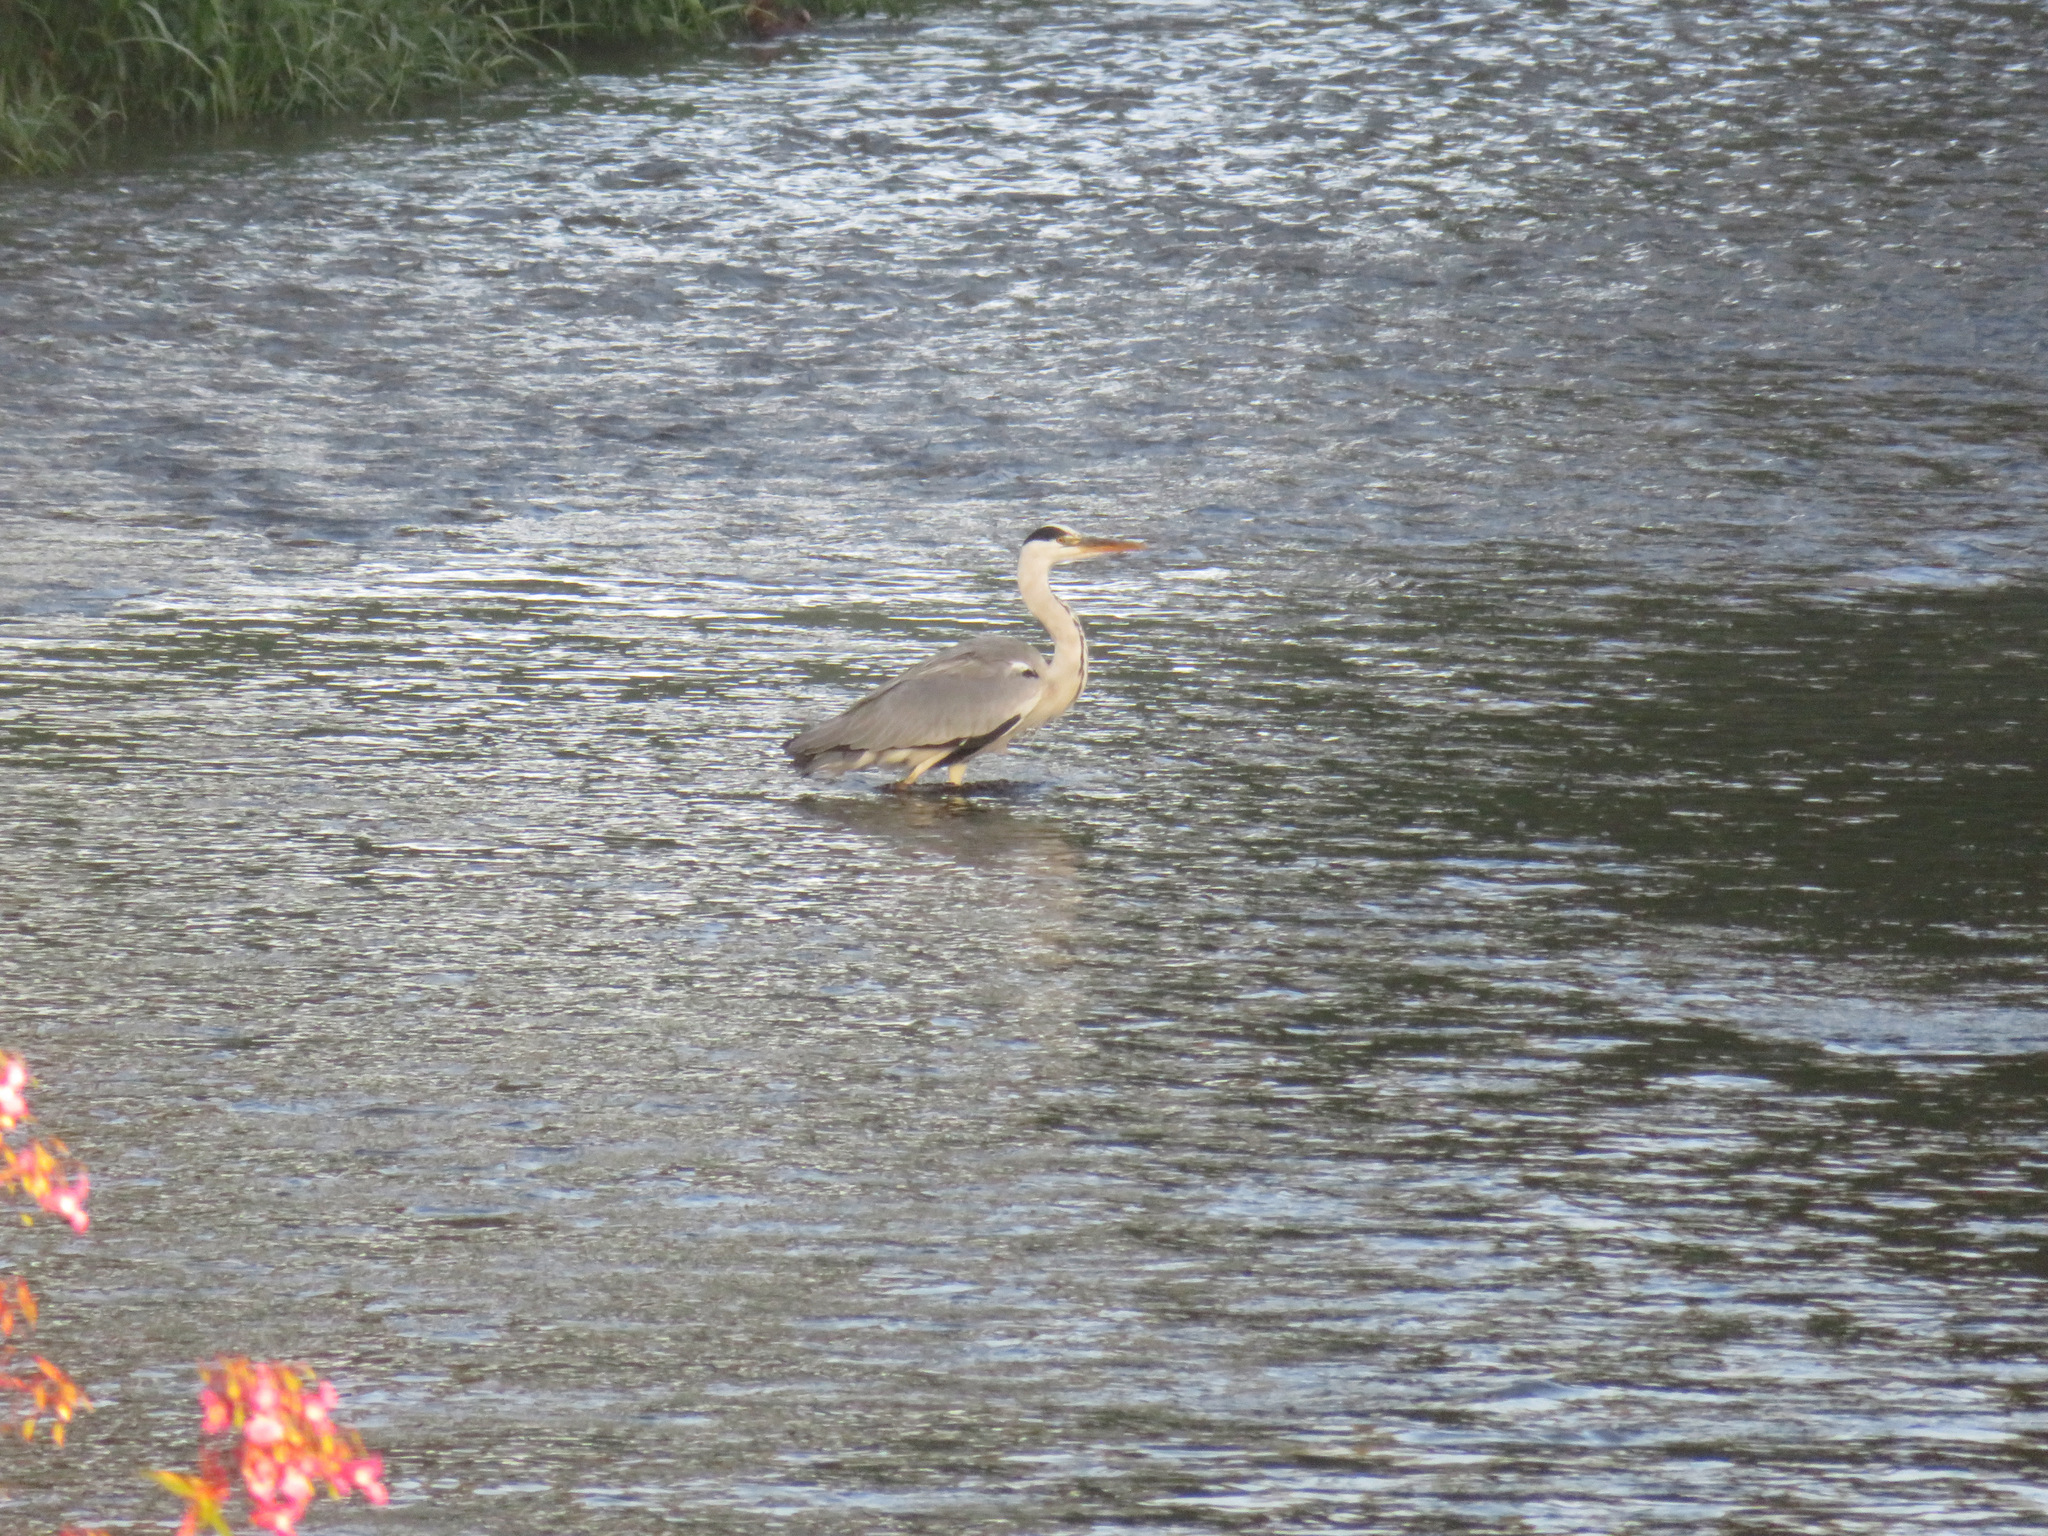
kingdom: Animalia
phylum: Chordata
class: Aves
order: Pelecaniformes
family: Ardeidae
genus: Ardea
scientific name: Ardea cinerea
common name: Grey heron
